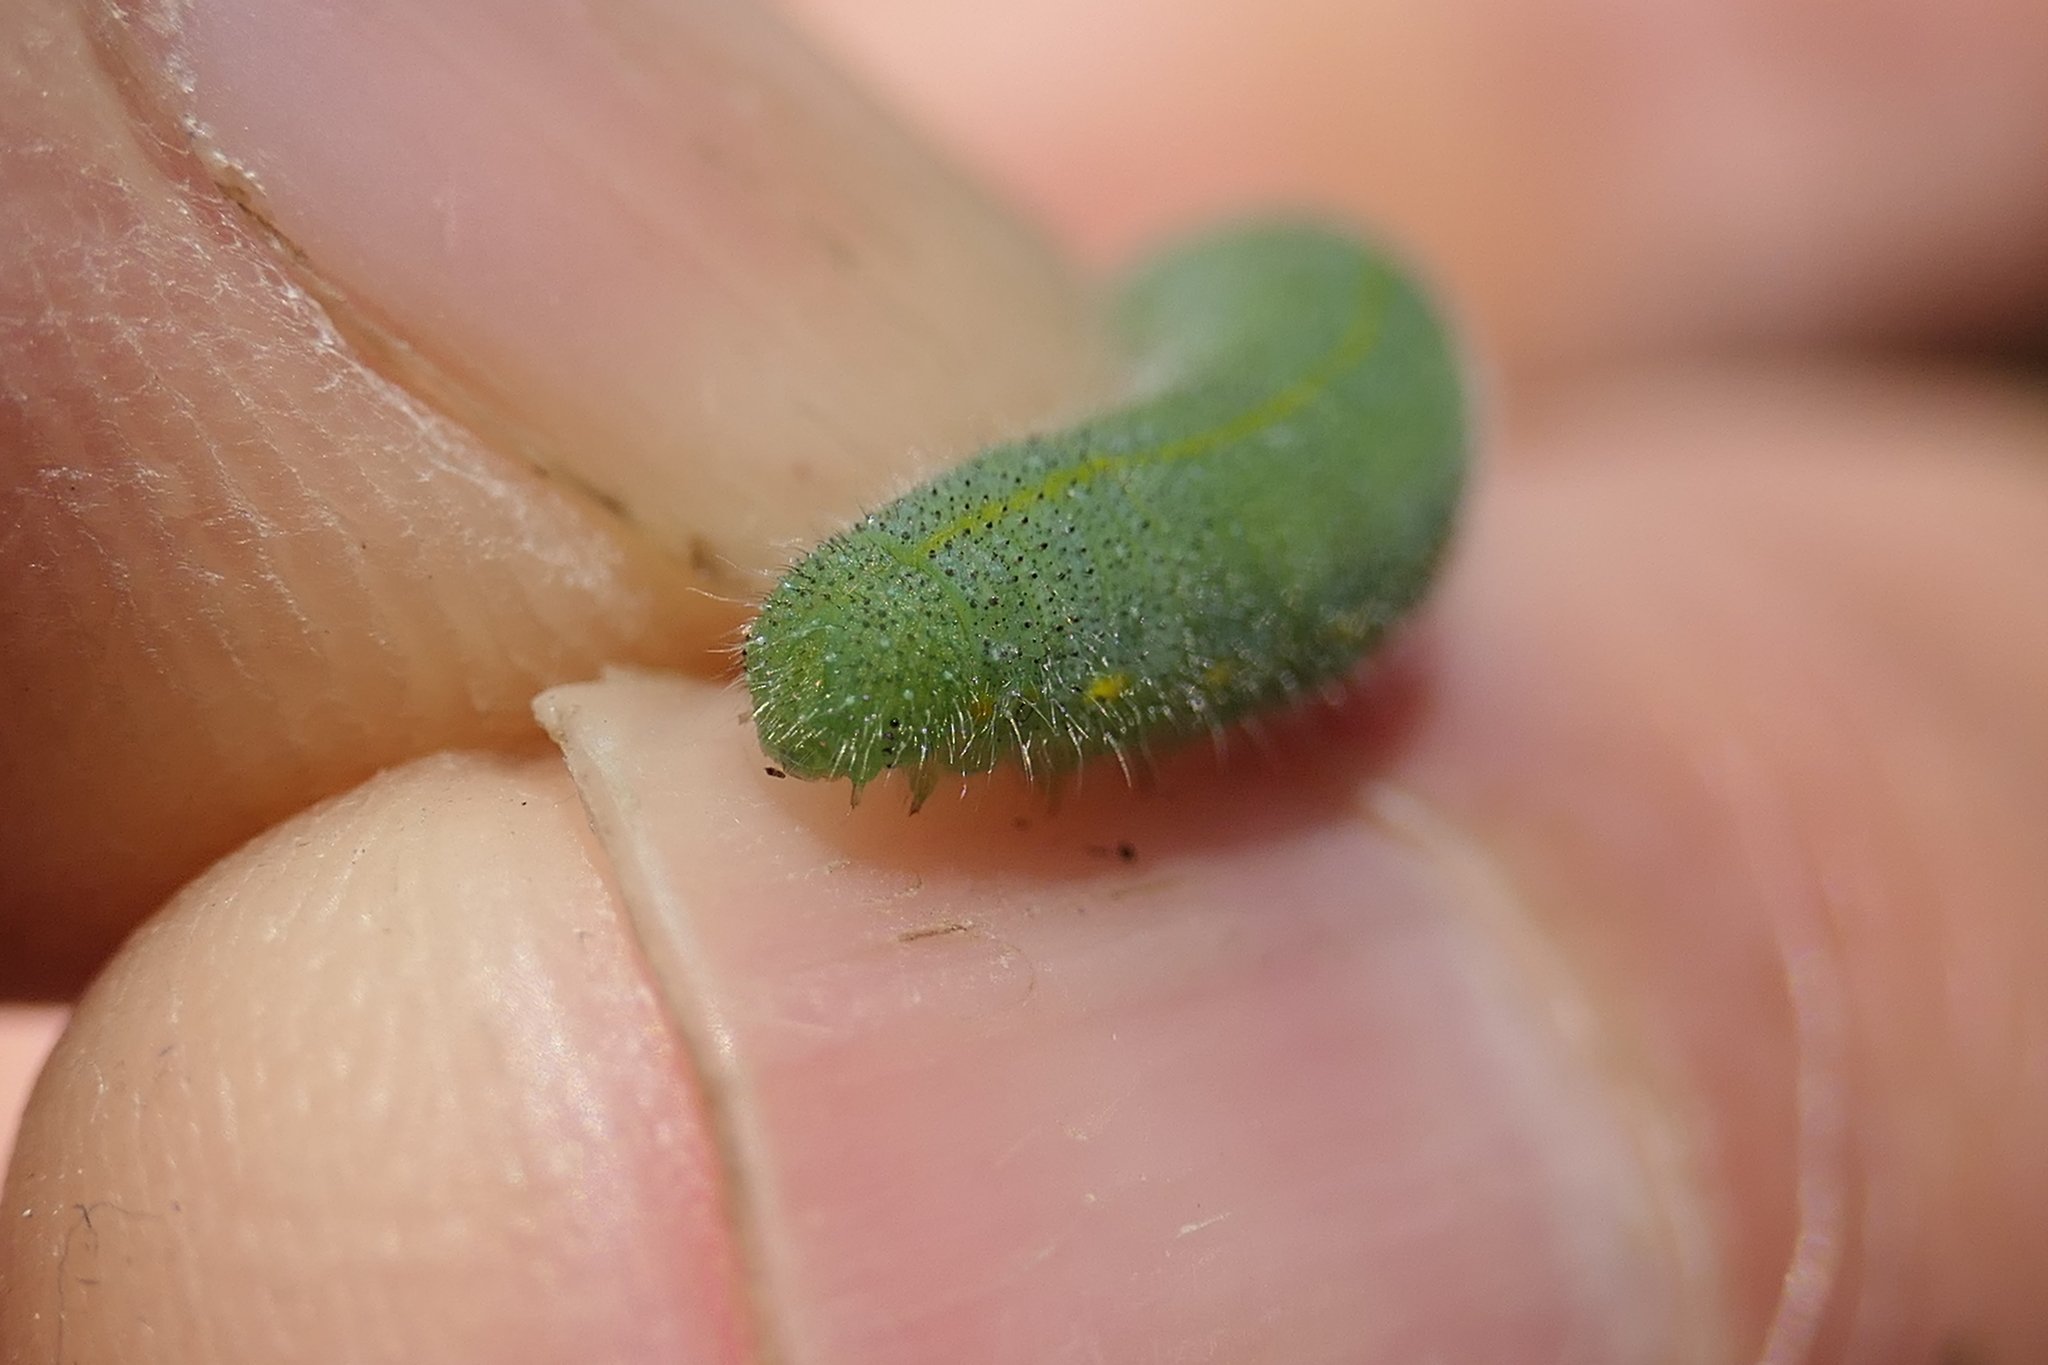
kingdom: Animalia
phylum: Arthropoda
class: Insecta
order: Lepidoptera
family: Pieridae
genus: Pieris
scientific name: Pieris rapae
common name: Small white
